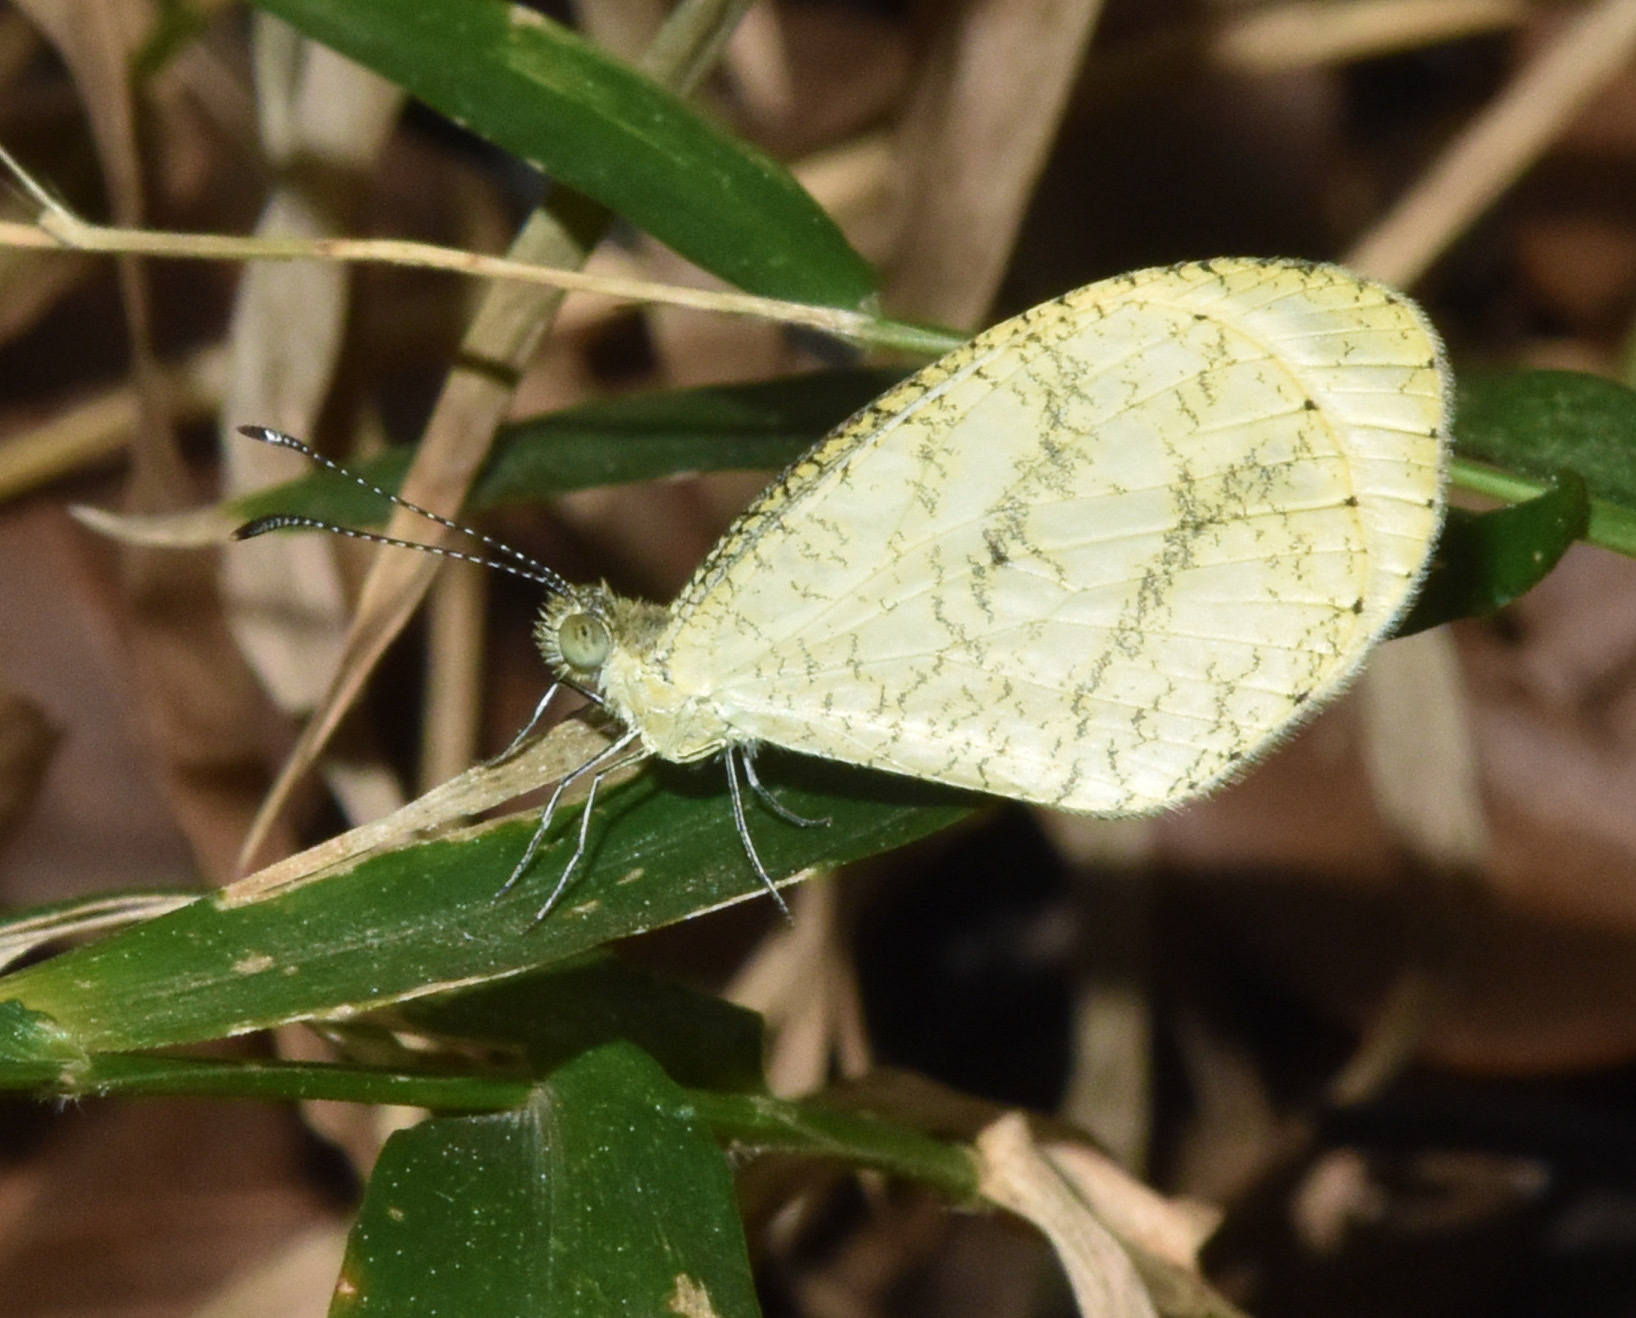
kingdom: Animalia
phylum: Arthropoda
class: Insecta
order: Lepidoptera
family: Pieridae
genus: Leptosia
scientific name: Leptosia alcesta
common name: African wood white
